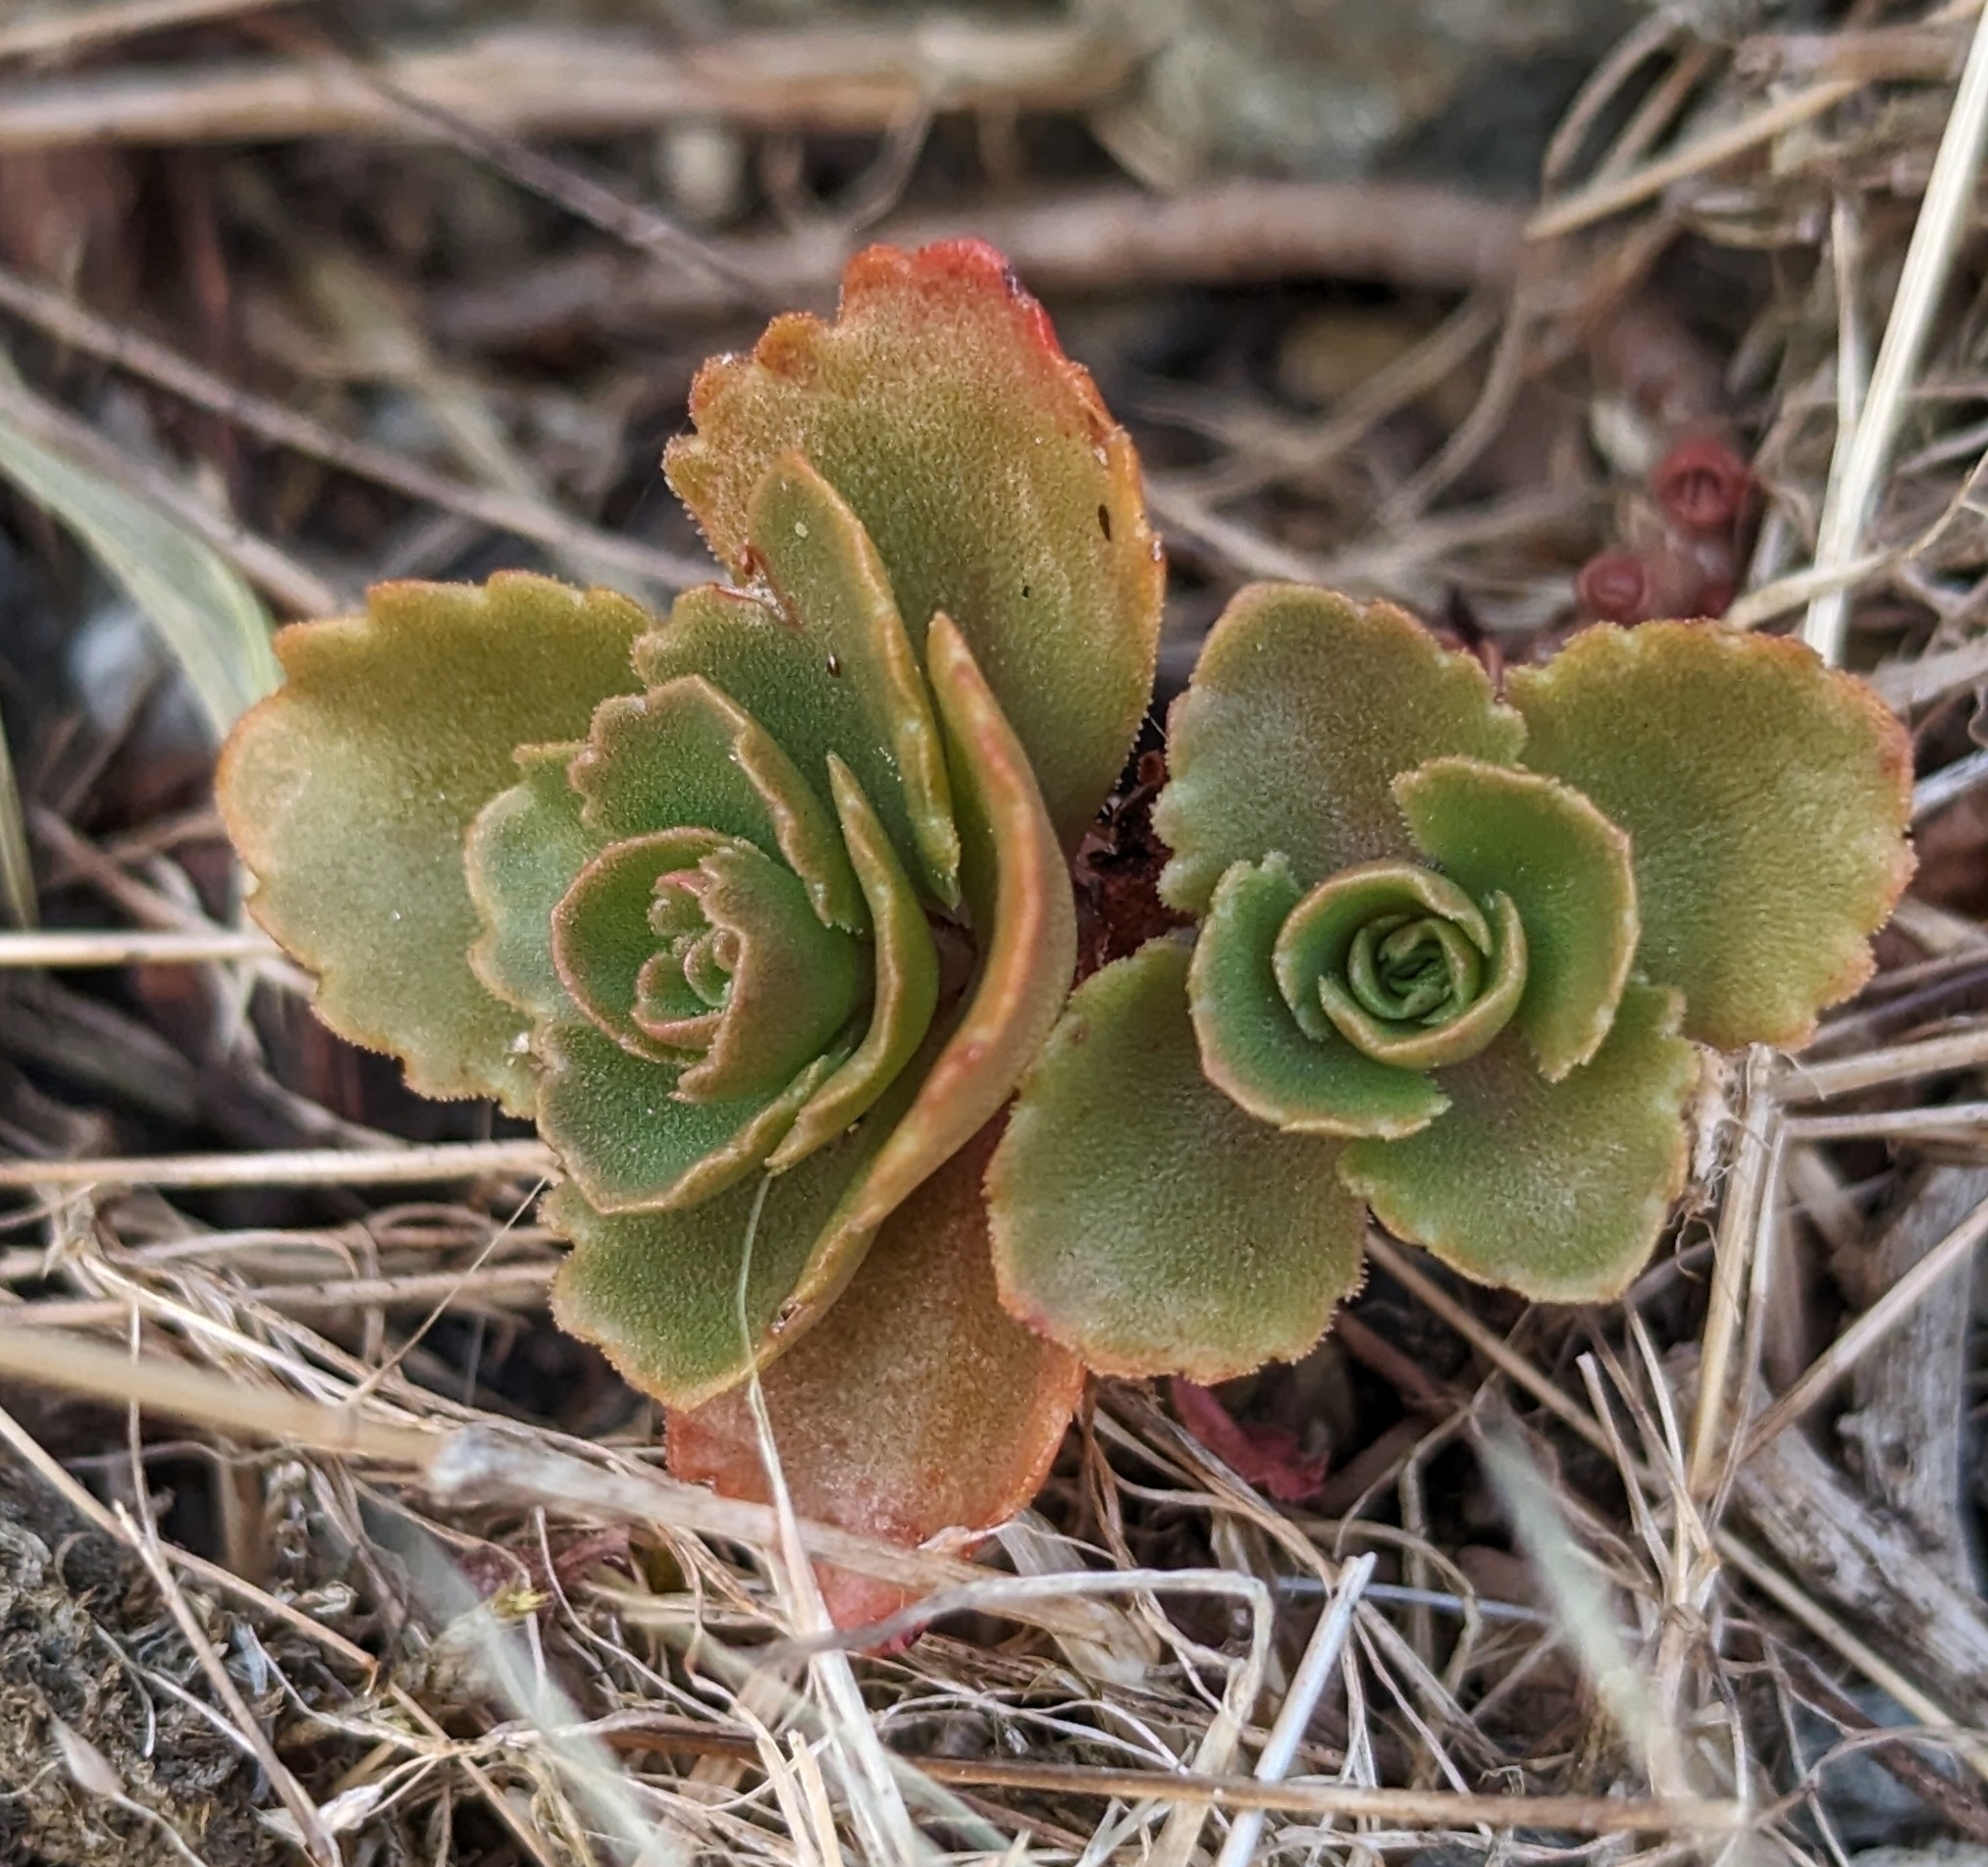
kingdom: Plantae
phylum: Tracheophyta
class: Magnoliopsida
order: Saxifragales
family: Crassulaceae
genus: Phedimus
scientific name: Phedimus spurius
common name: Caucasian stonecrop
